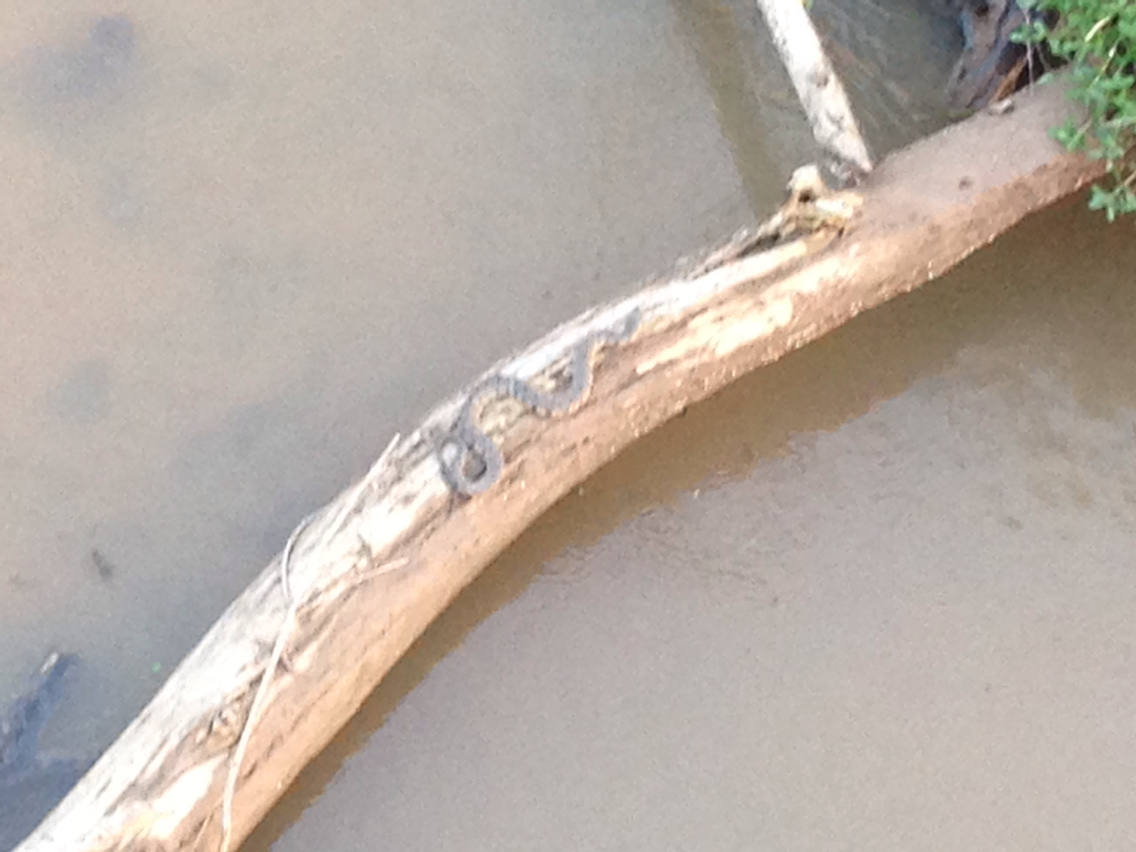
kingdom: Animalia
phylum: Chordata
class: Squamata
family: Colubridae
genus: Nerodia
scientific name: Nerodia rhombifer
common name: Diamondback water snake
